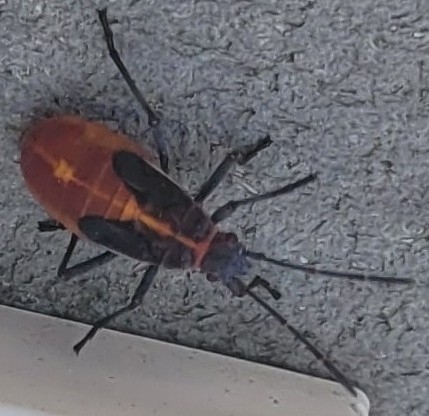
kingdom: Animalia
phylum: Arthropoda
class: Insecta
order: Hemiptera
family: Rhopalidae
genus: Boisea
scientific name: Boisea trivittata
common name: Boxelder bug
